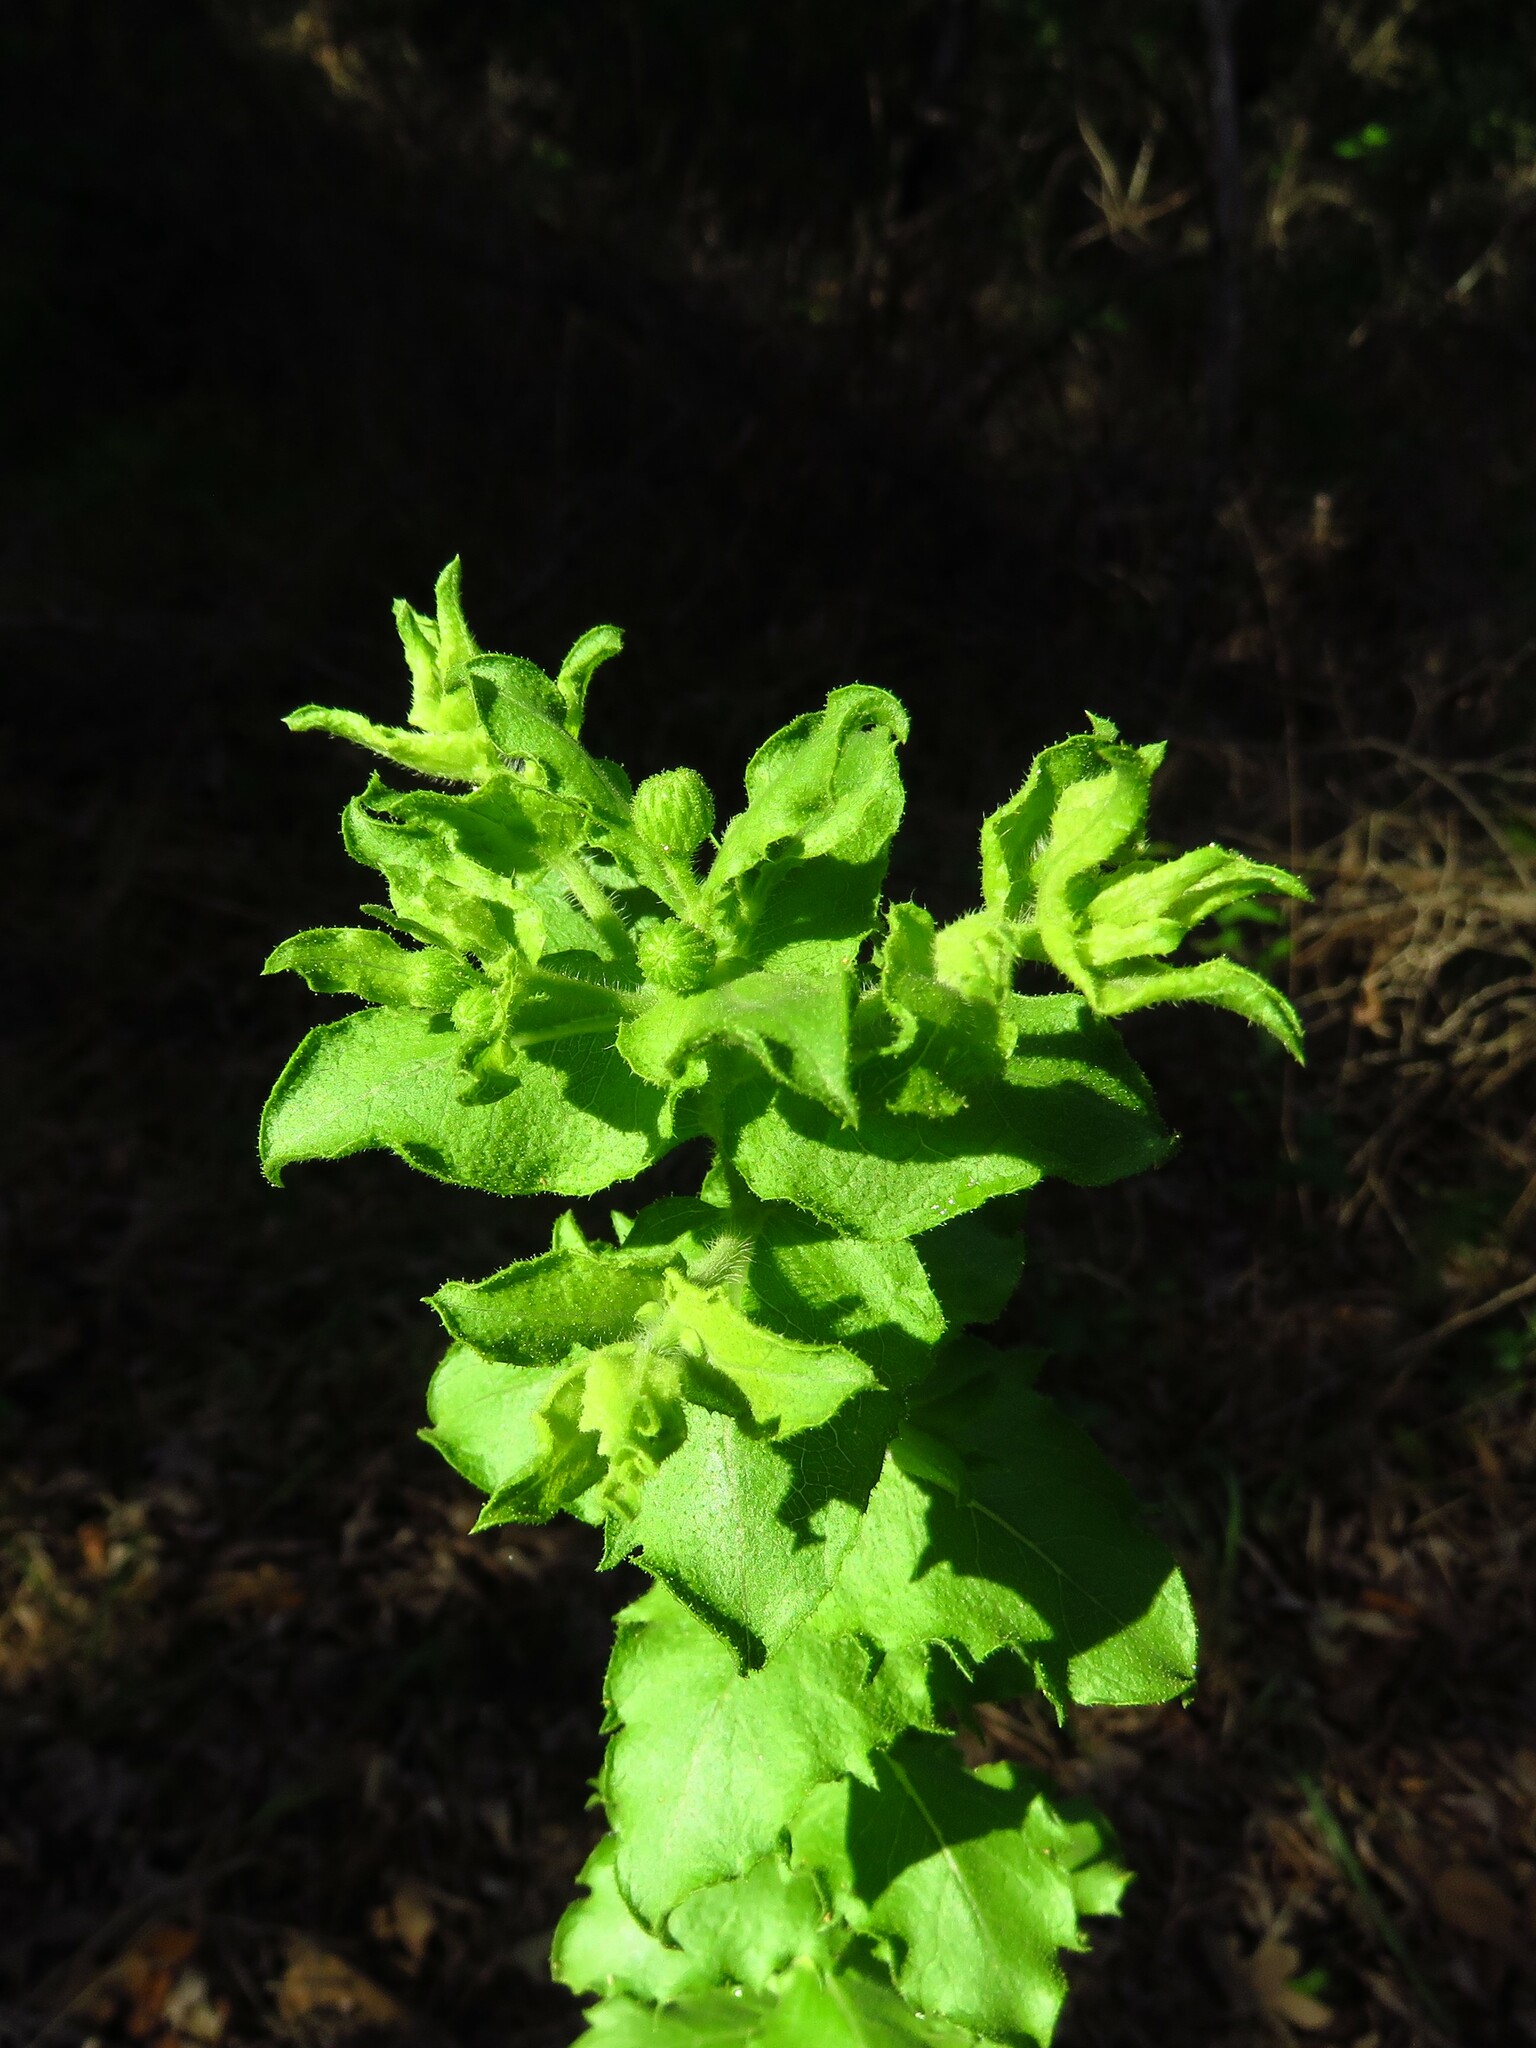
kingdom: Plantae
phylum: Tracheophyta
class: Magnoliopsida
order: Asterales
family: Asteraceae
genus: Heterotheca
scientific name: Heterotheca subaxillaris
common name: Camphorweed
